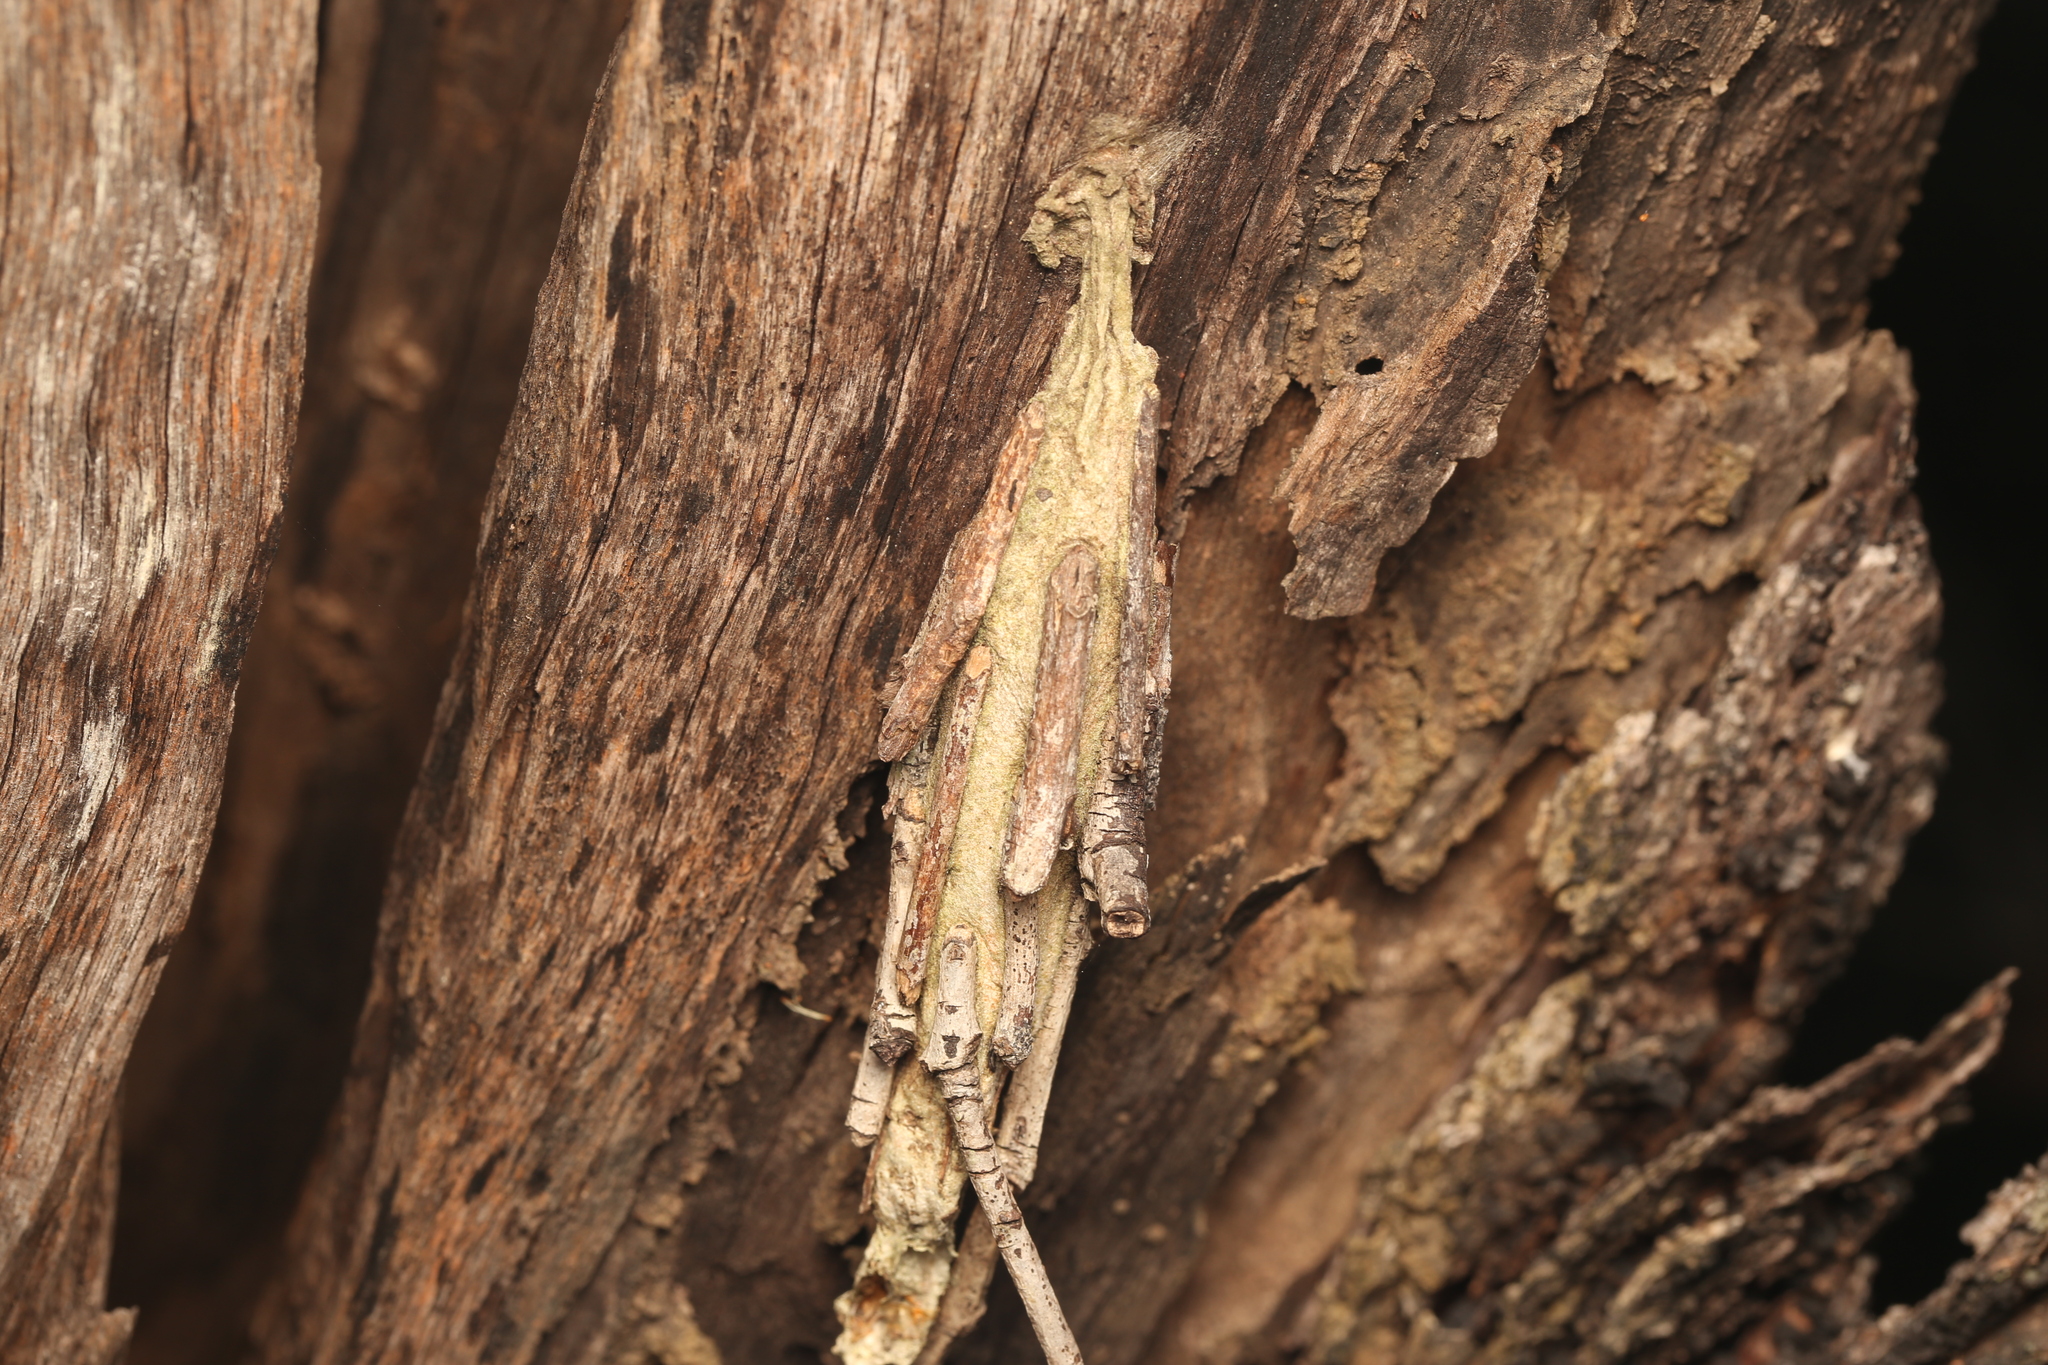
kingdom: Animalia
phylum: Arthropoda
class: Insecta
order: Lepidoptera
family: Psychidae
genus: Metura
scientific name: Metura elongatus
